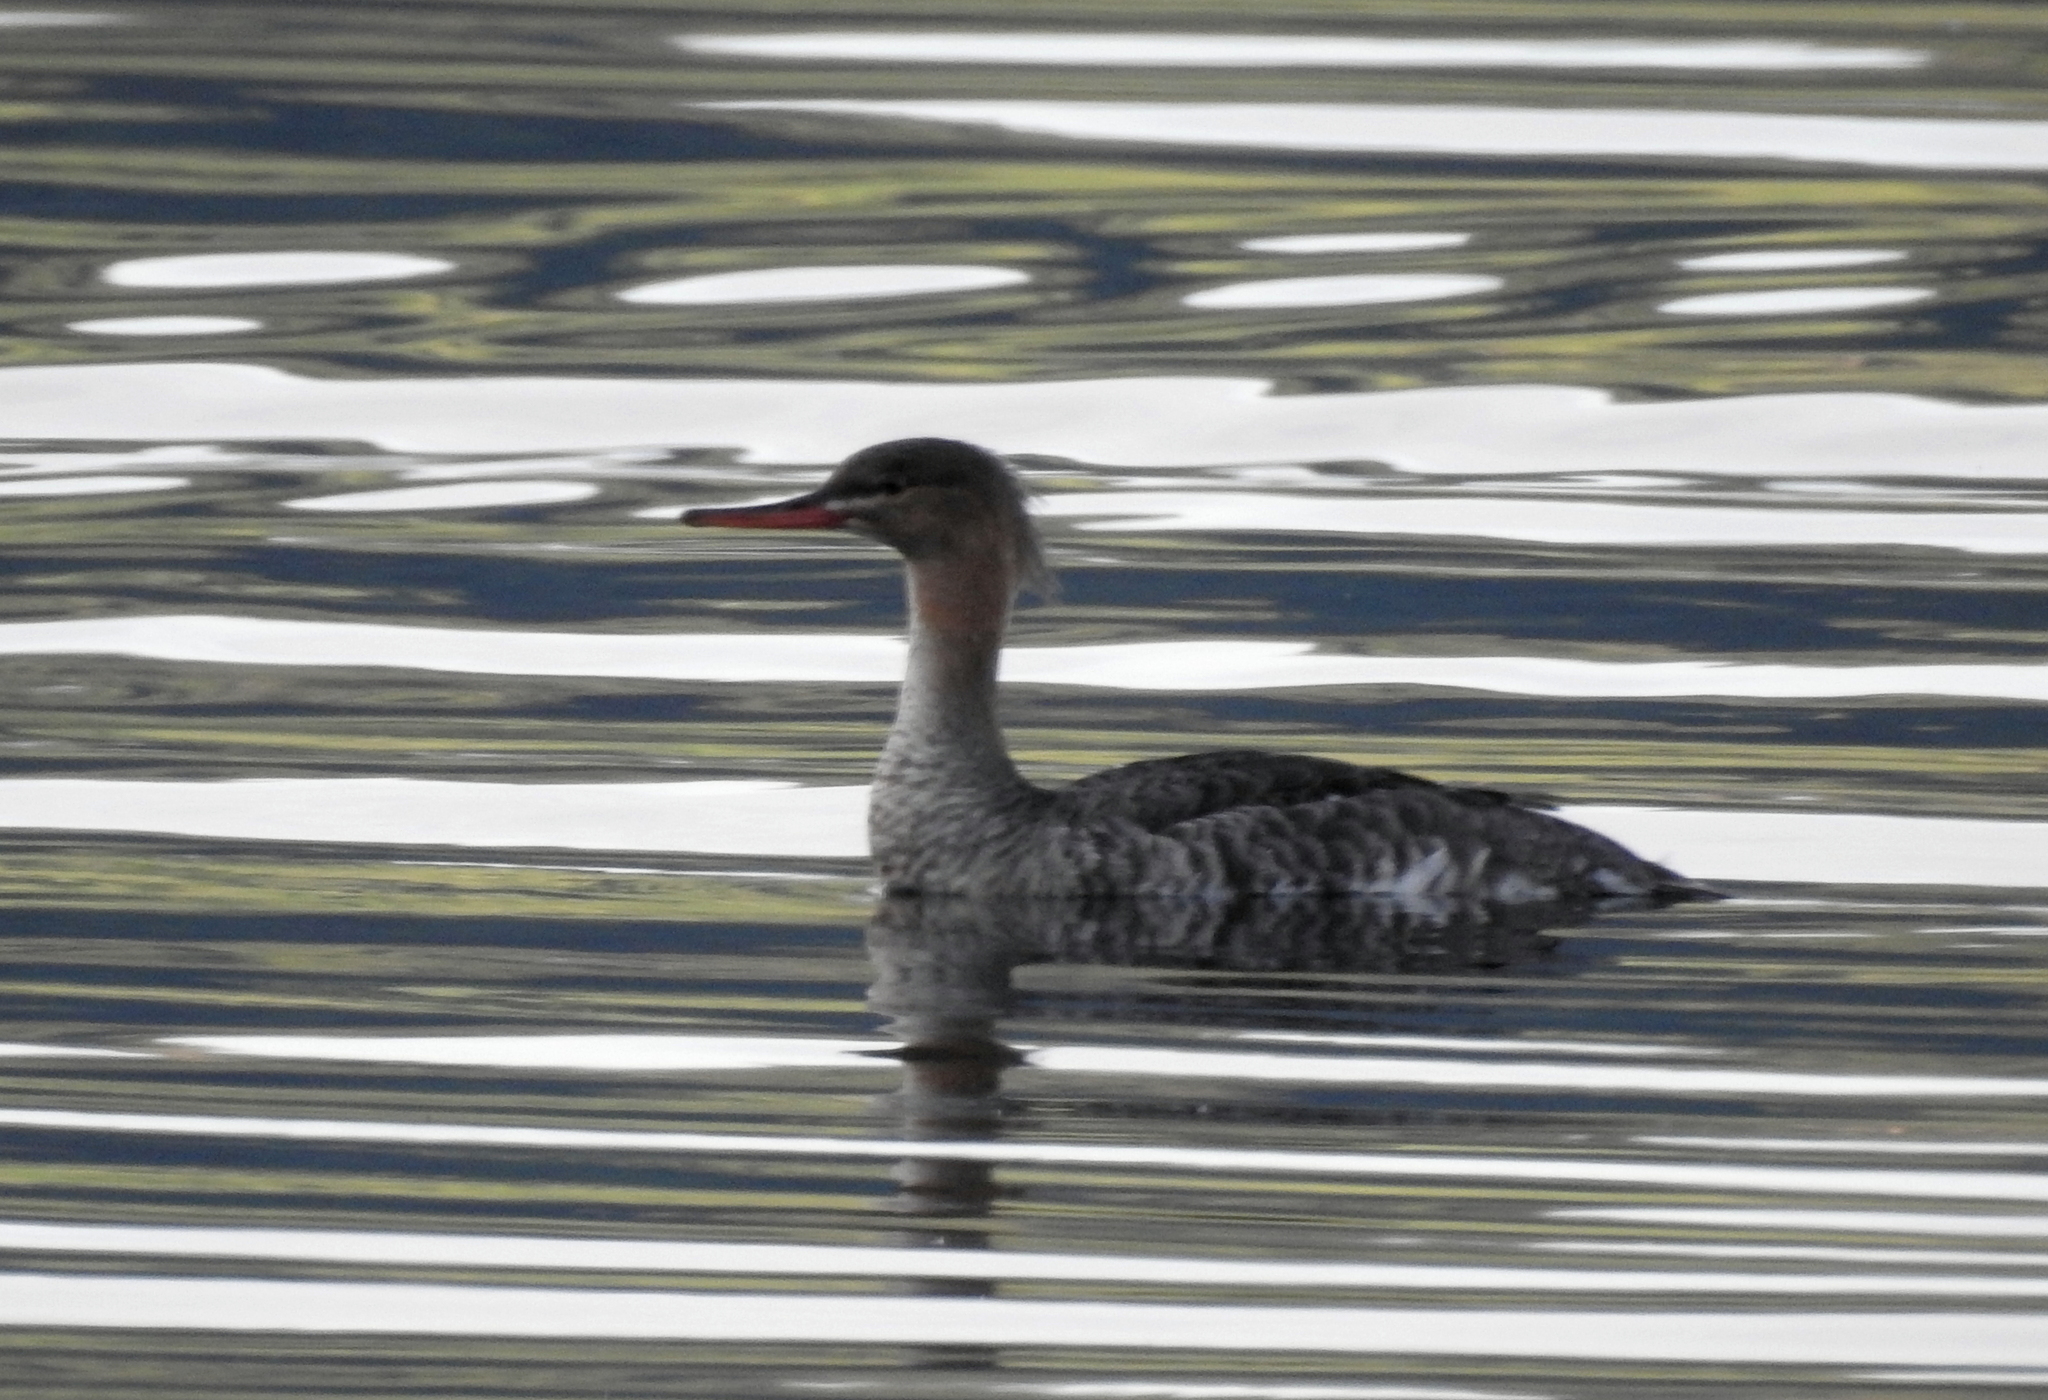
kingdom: Animalia
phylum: Chordata
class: Aves
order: Anseriformes
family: Anatidae
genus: Mergus
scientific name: Mergus serrator
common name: Red-breasted merganser
